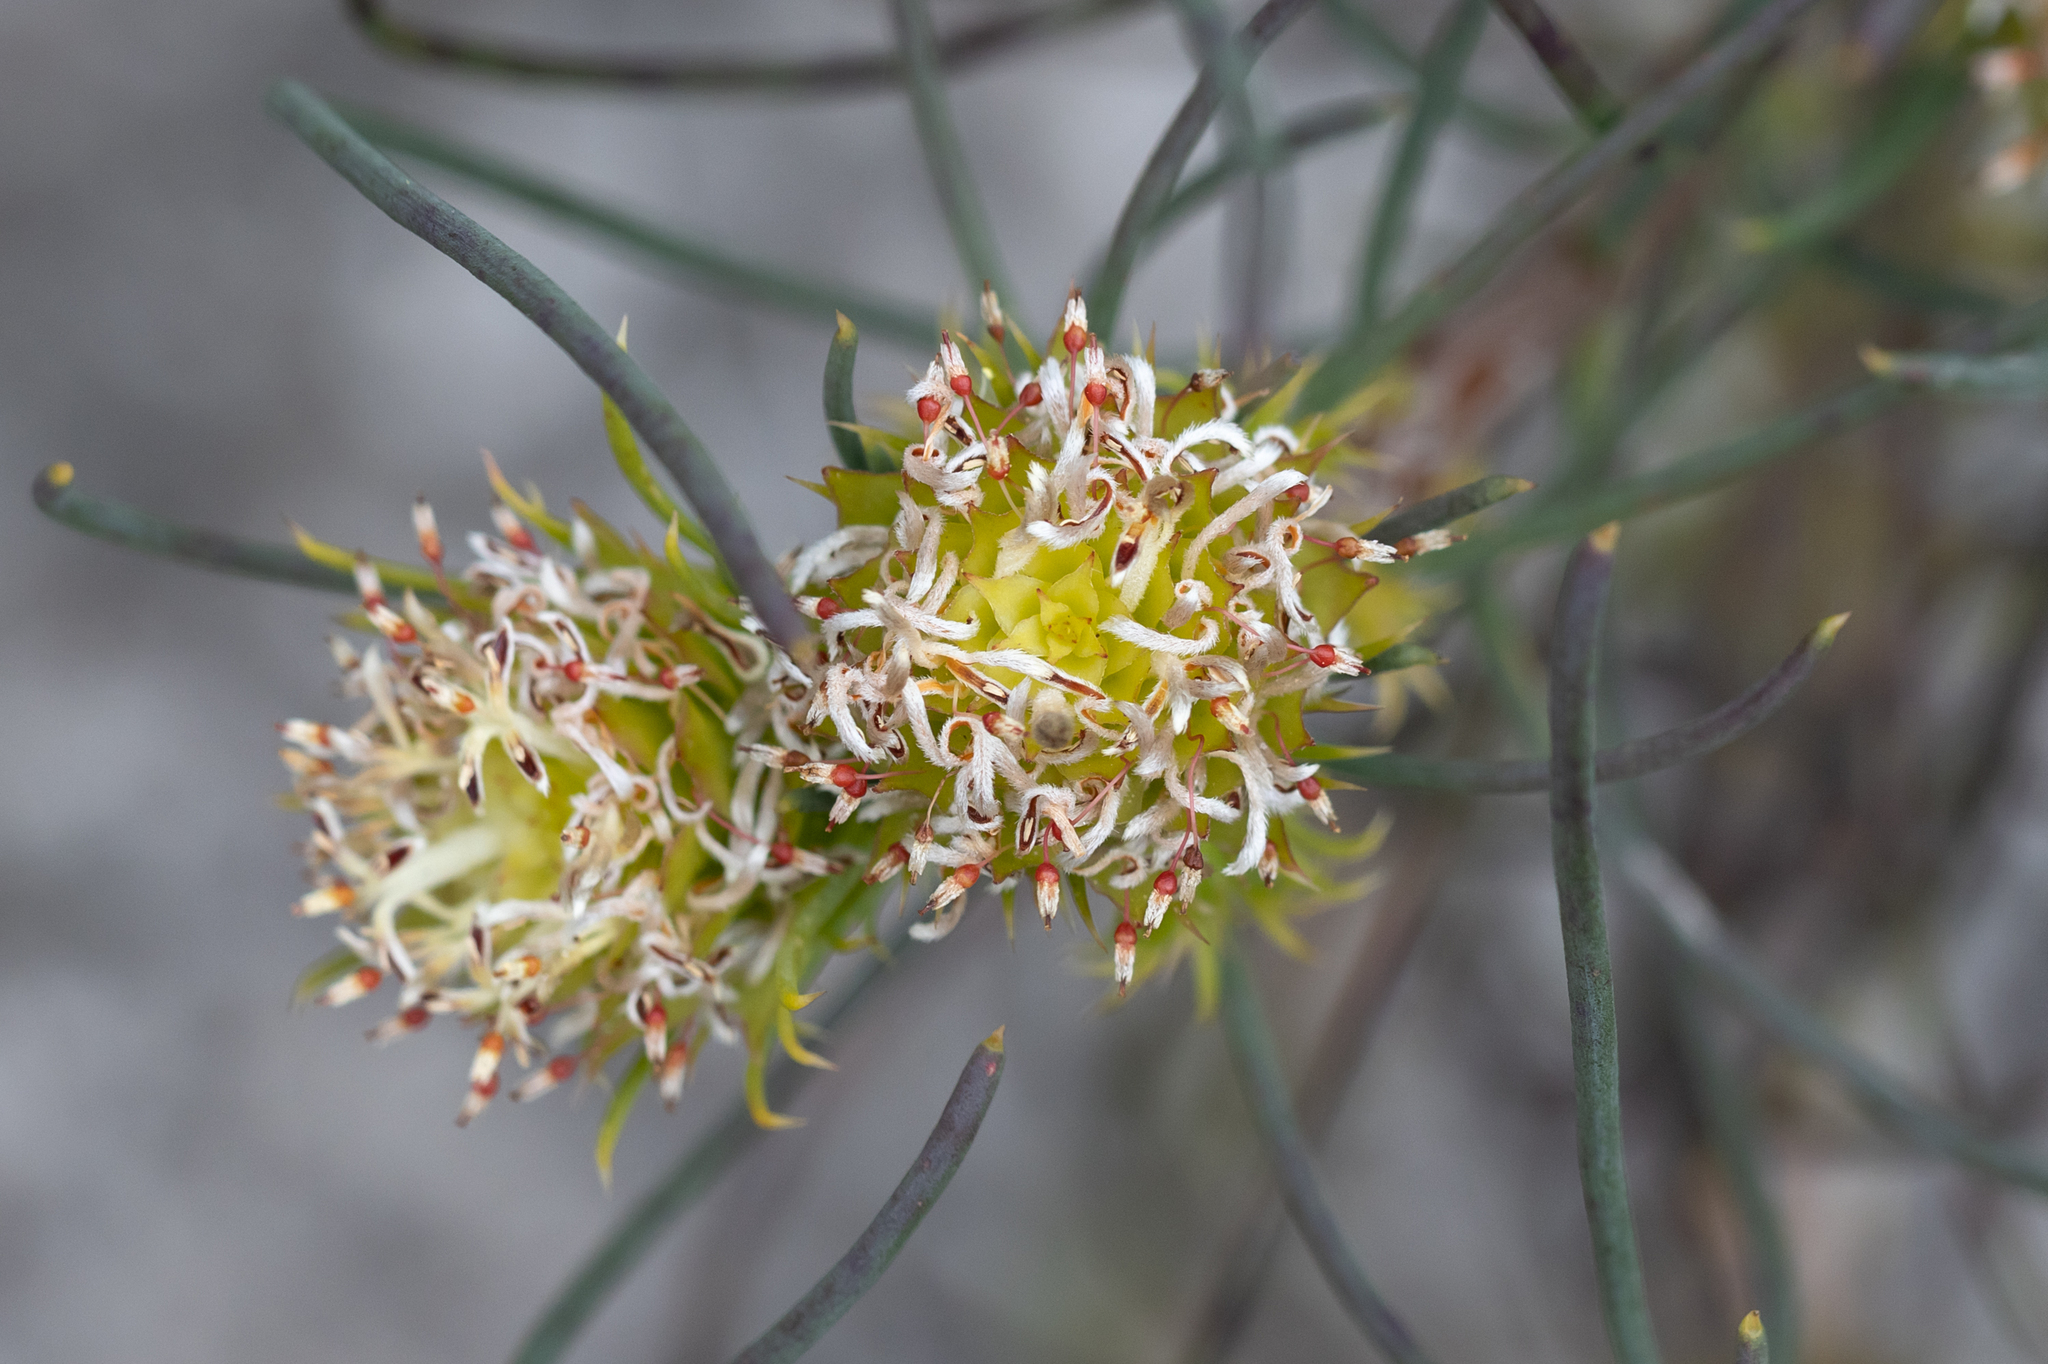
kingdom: Plantae
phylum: Tracheophyta
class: Magnoliopsida
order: Proteales
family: Proteaceae
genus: Petrophile
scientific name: Petrophile acicularis
